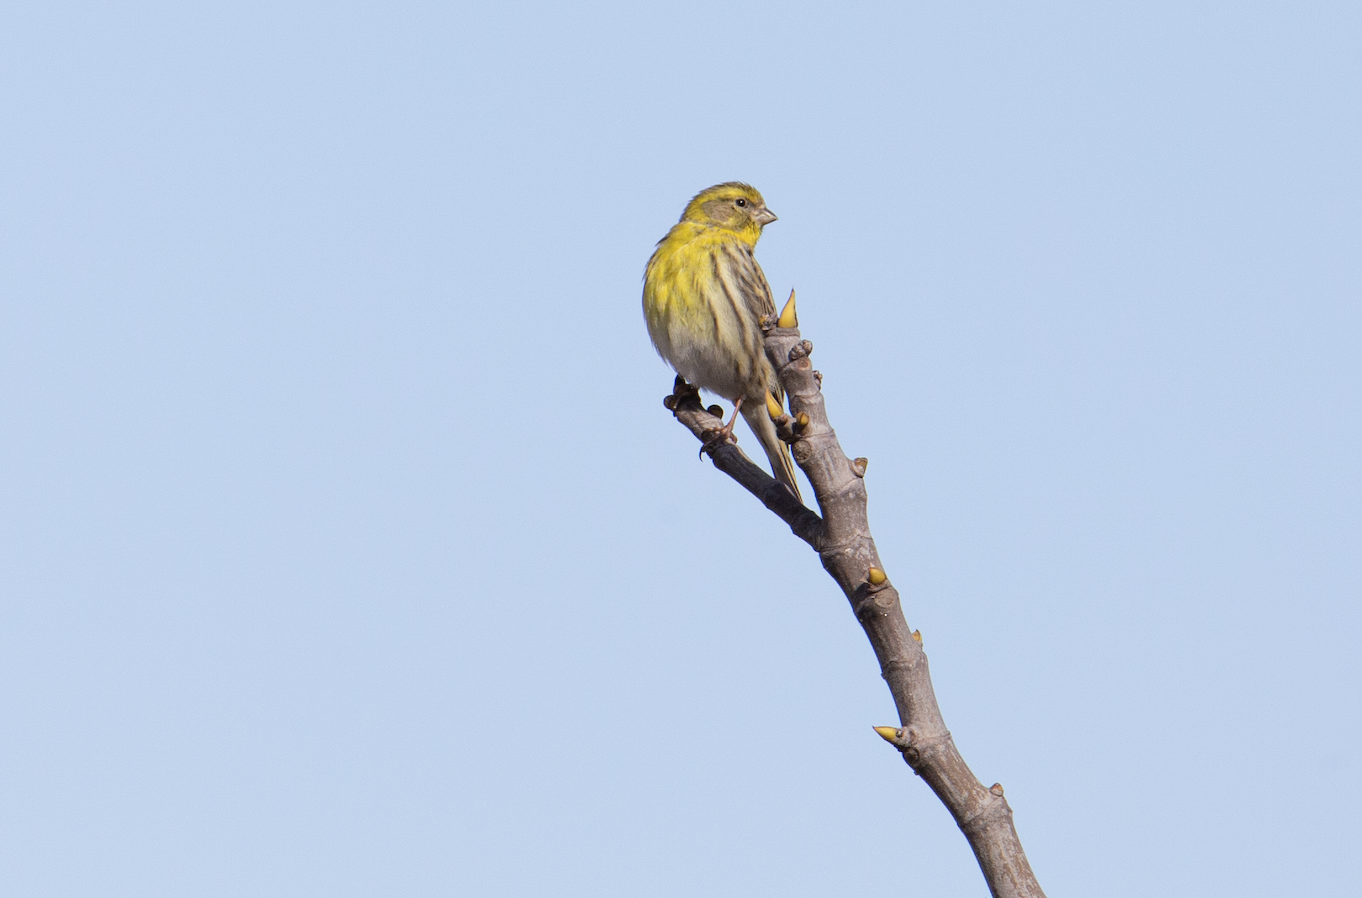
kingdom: Animalia
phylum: Chordata
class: Aves
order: Passeriformes
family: Fringillidae
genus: Serinus
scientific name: Serinus serinus
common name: European serin
